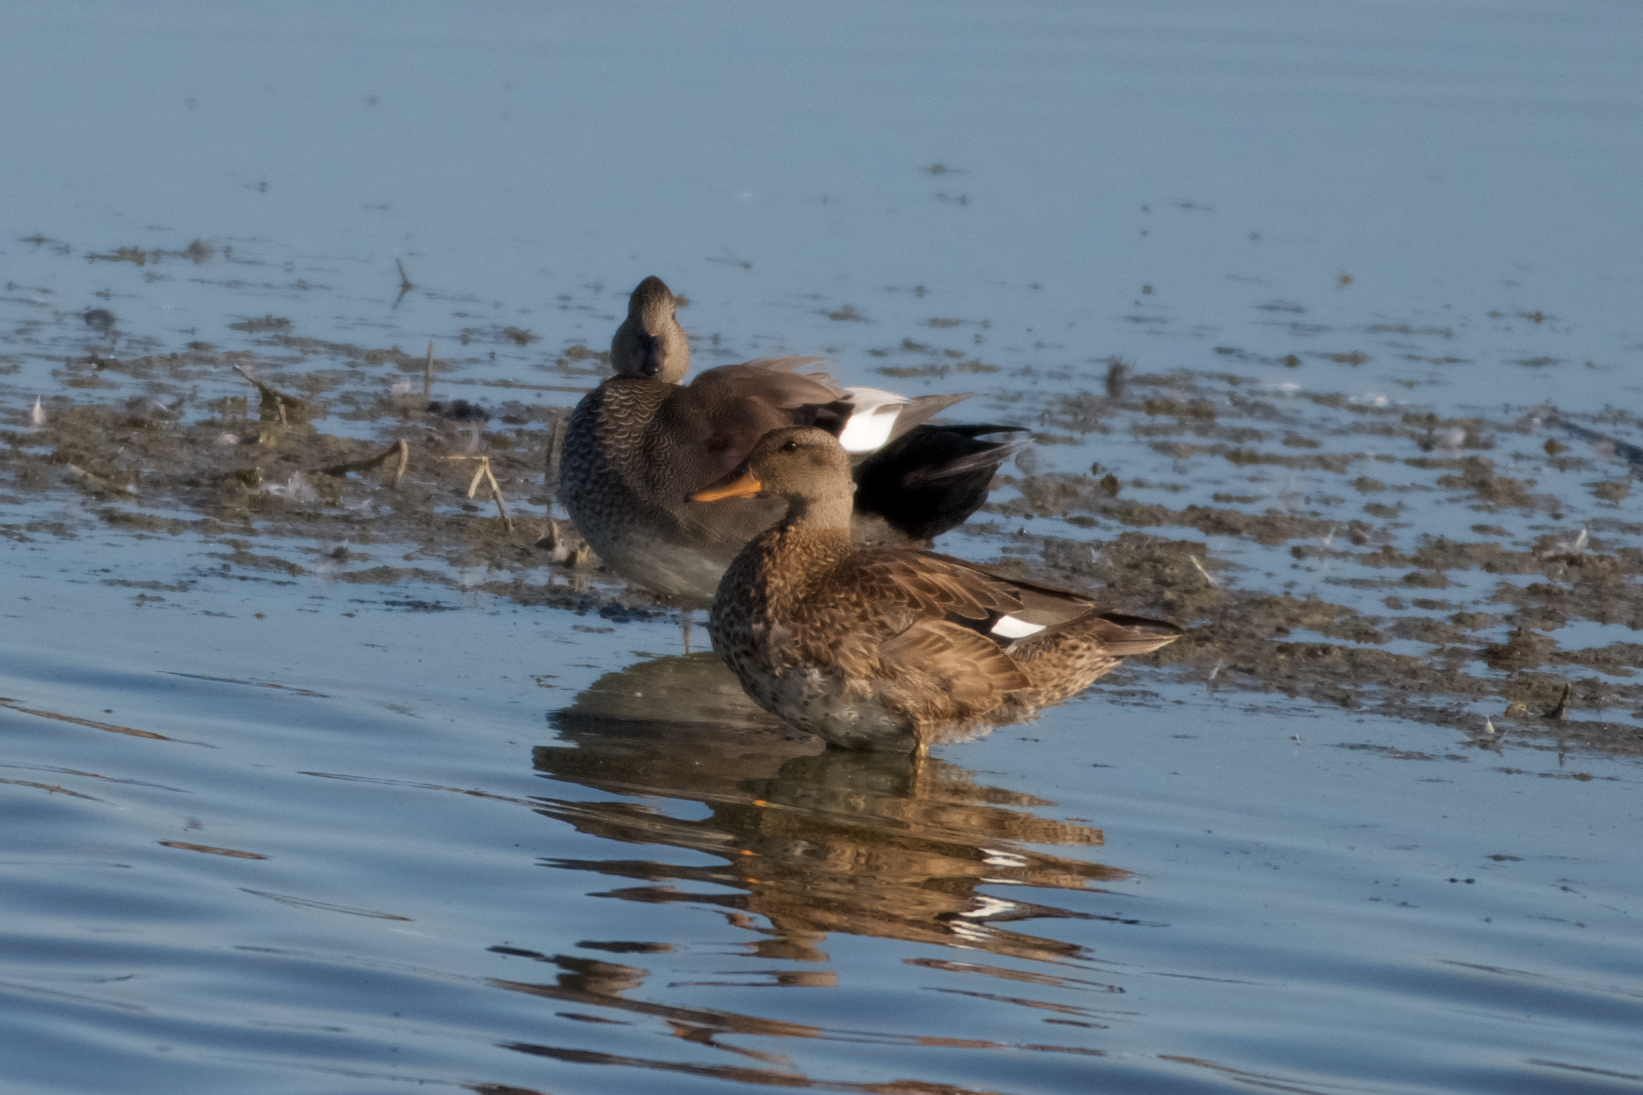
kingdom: Animalia
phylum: Chordata
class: Aves
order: Anseriformes
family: Anatidae
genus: Mareca
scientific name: Mareca strepera
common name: Gadwall
